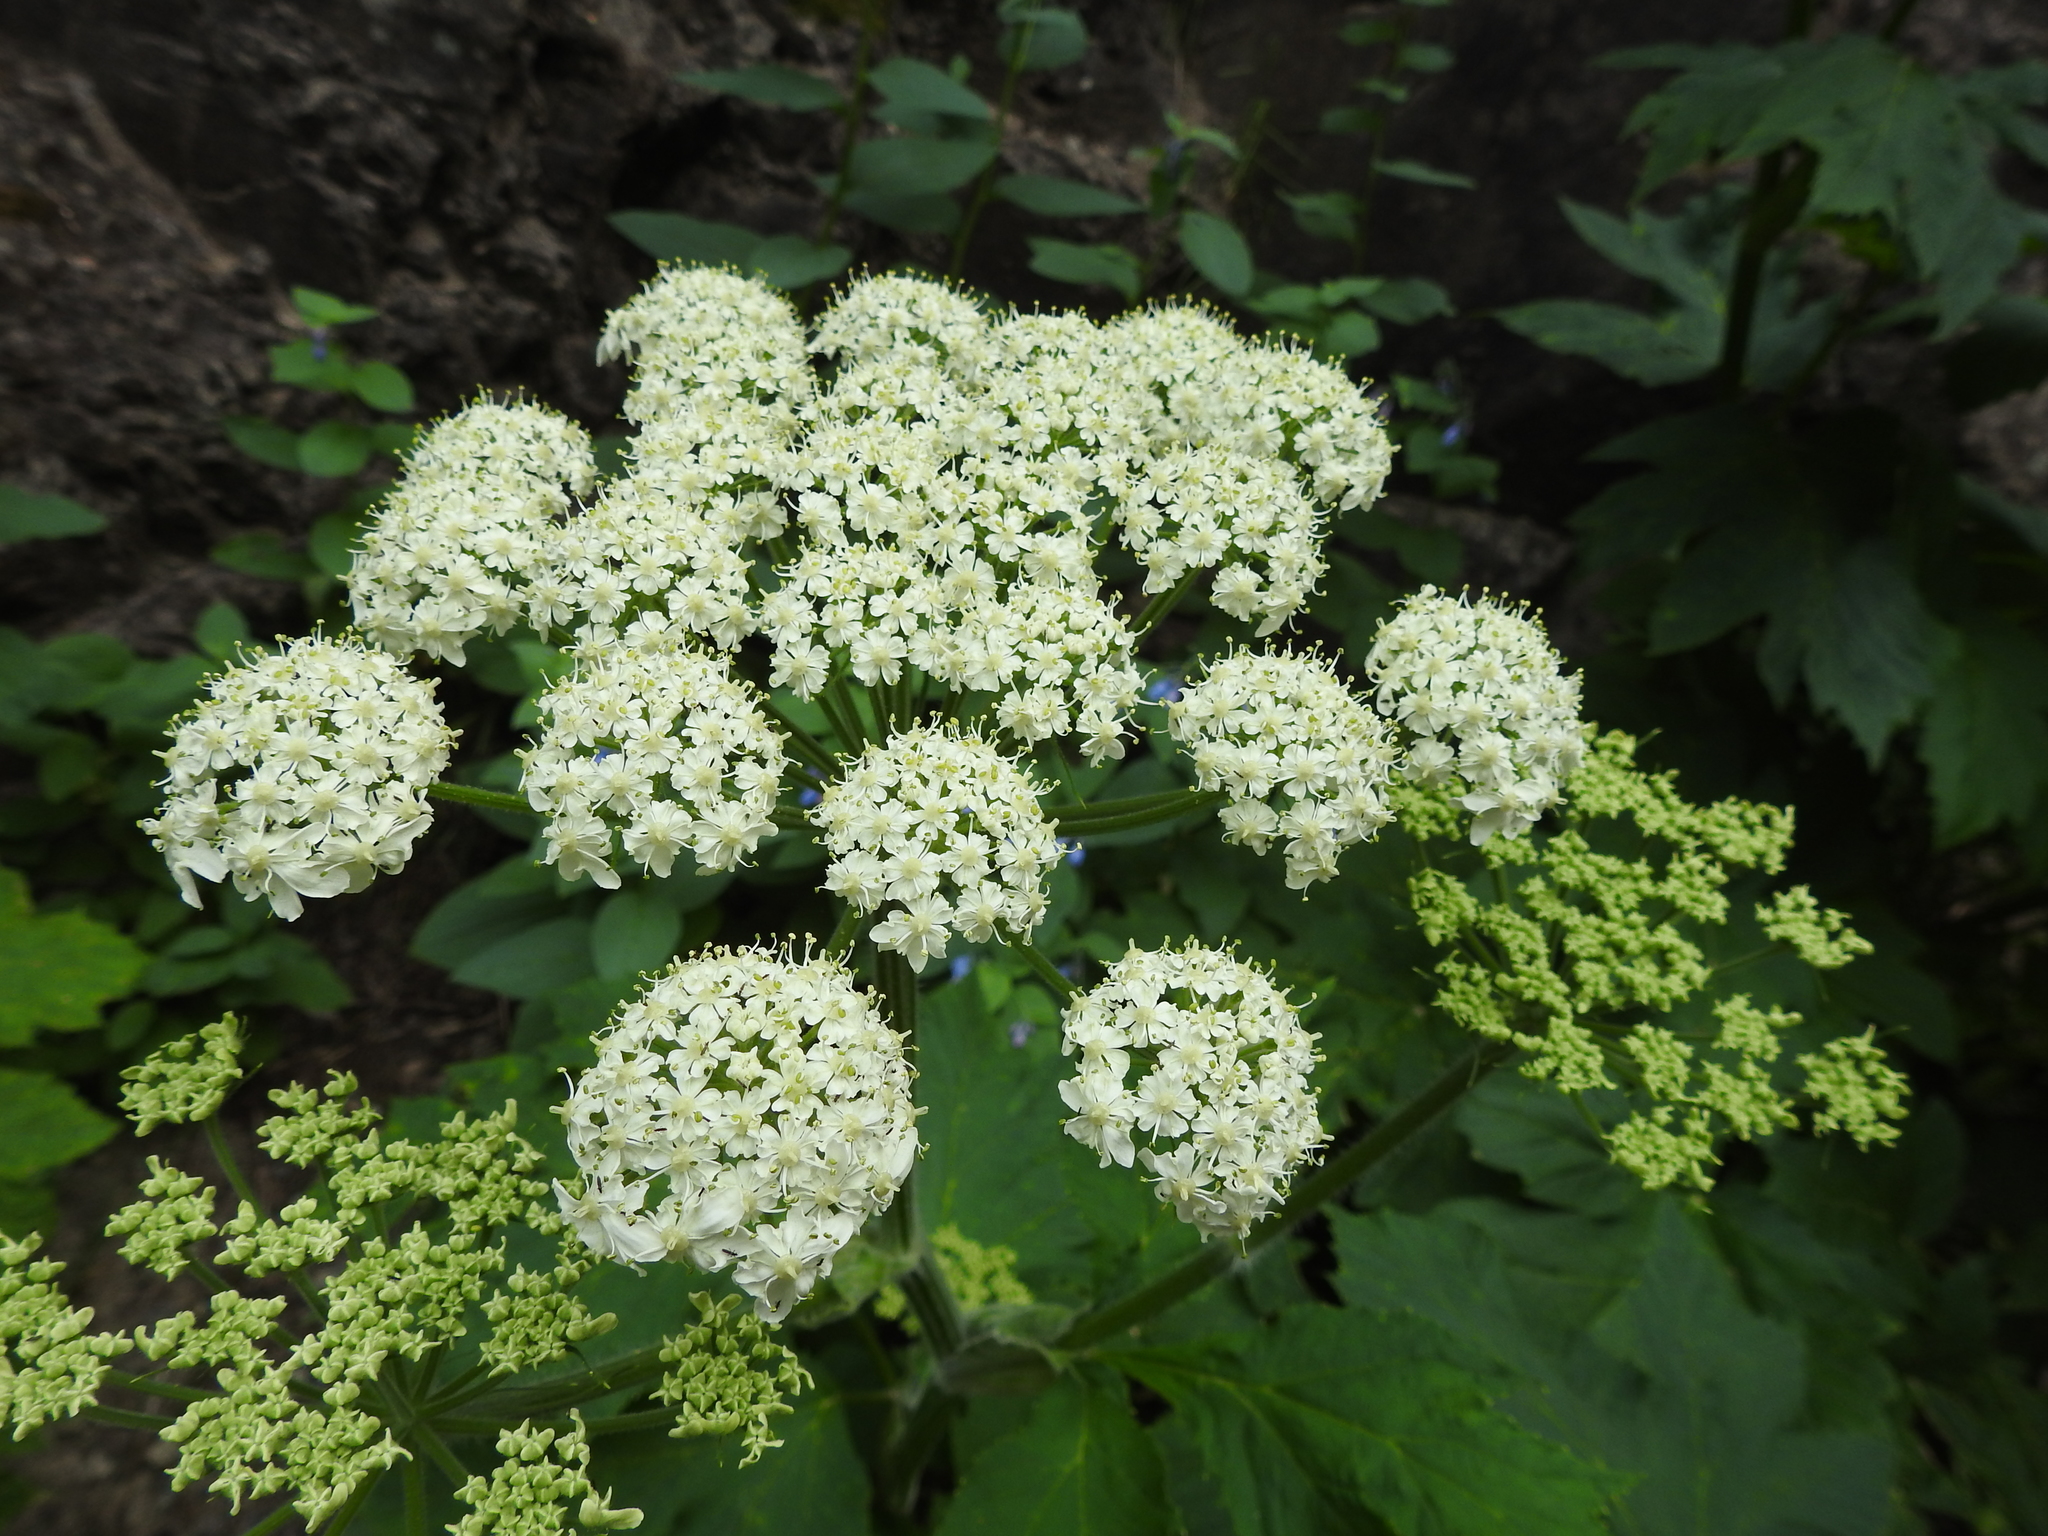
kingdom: Plantae
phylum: Tracheophyta
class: Magnoliopsida
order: Apiales
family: Apiaceae
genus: Heracleum
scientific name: Heracleum maximum
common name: American cow parsnip
